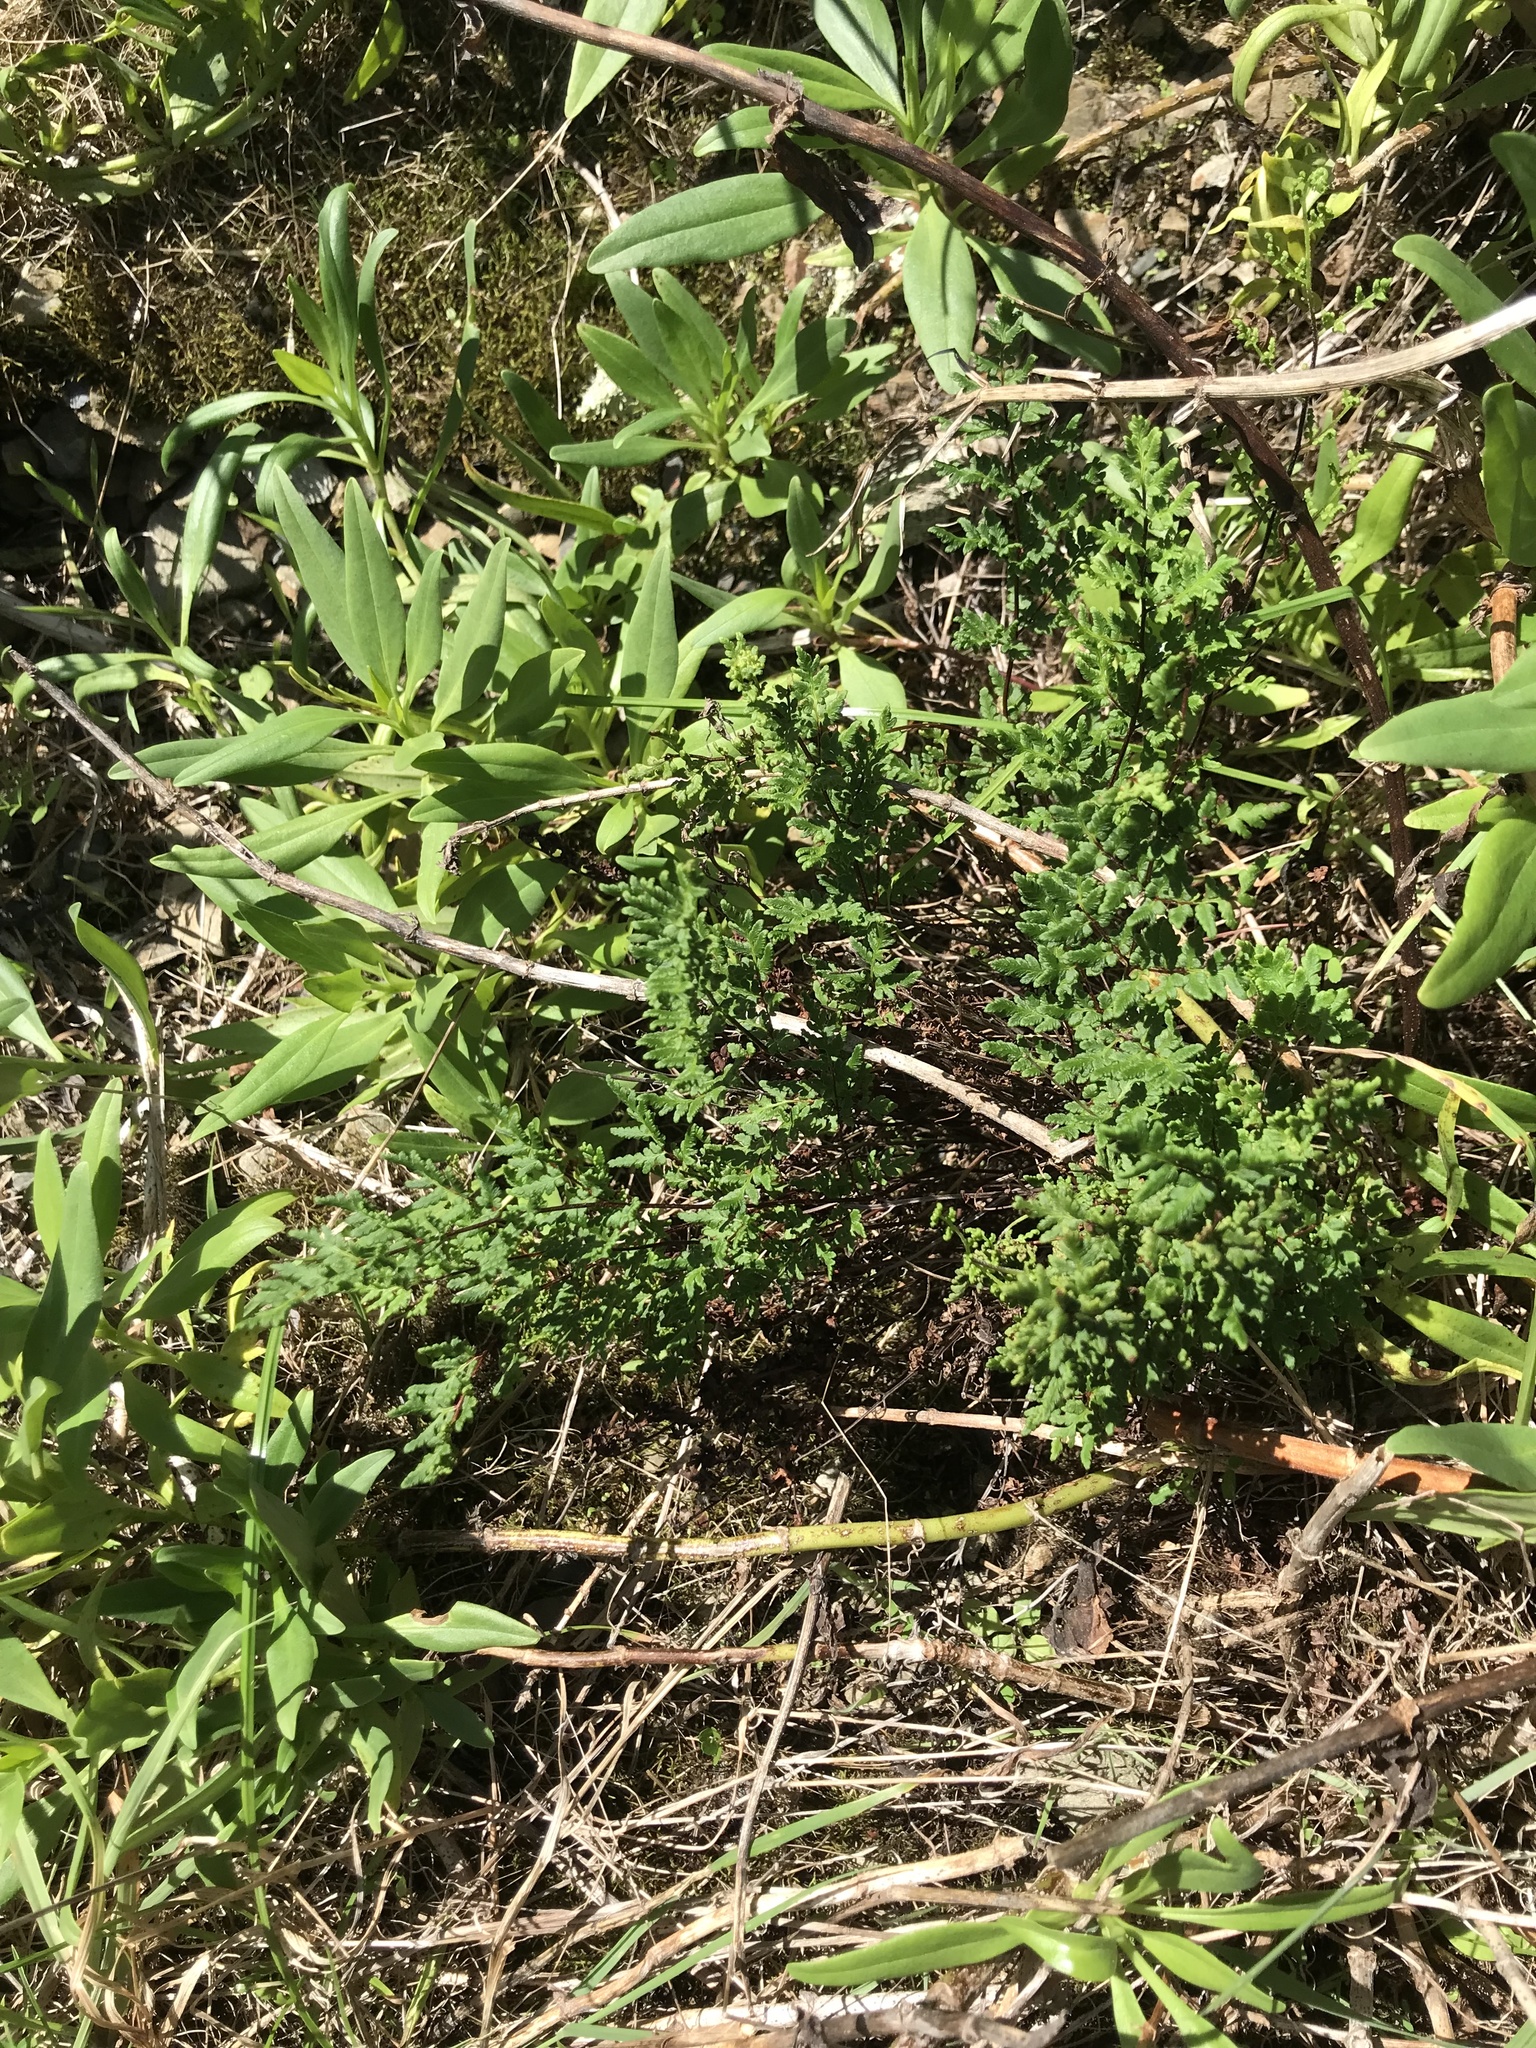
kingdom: Plantae
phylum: Tracheophyta
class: Polypodiopsida
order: Polypodiales
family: Pteridaceae
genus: Cheilanthes
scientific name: Cheilanthes sieberi
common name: Mulga fern
